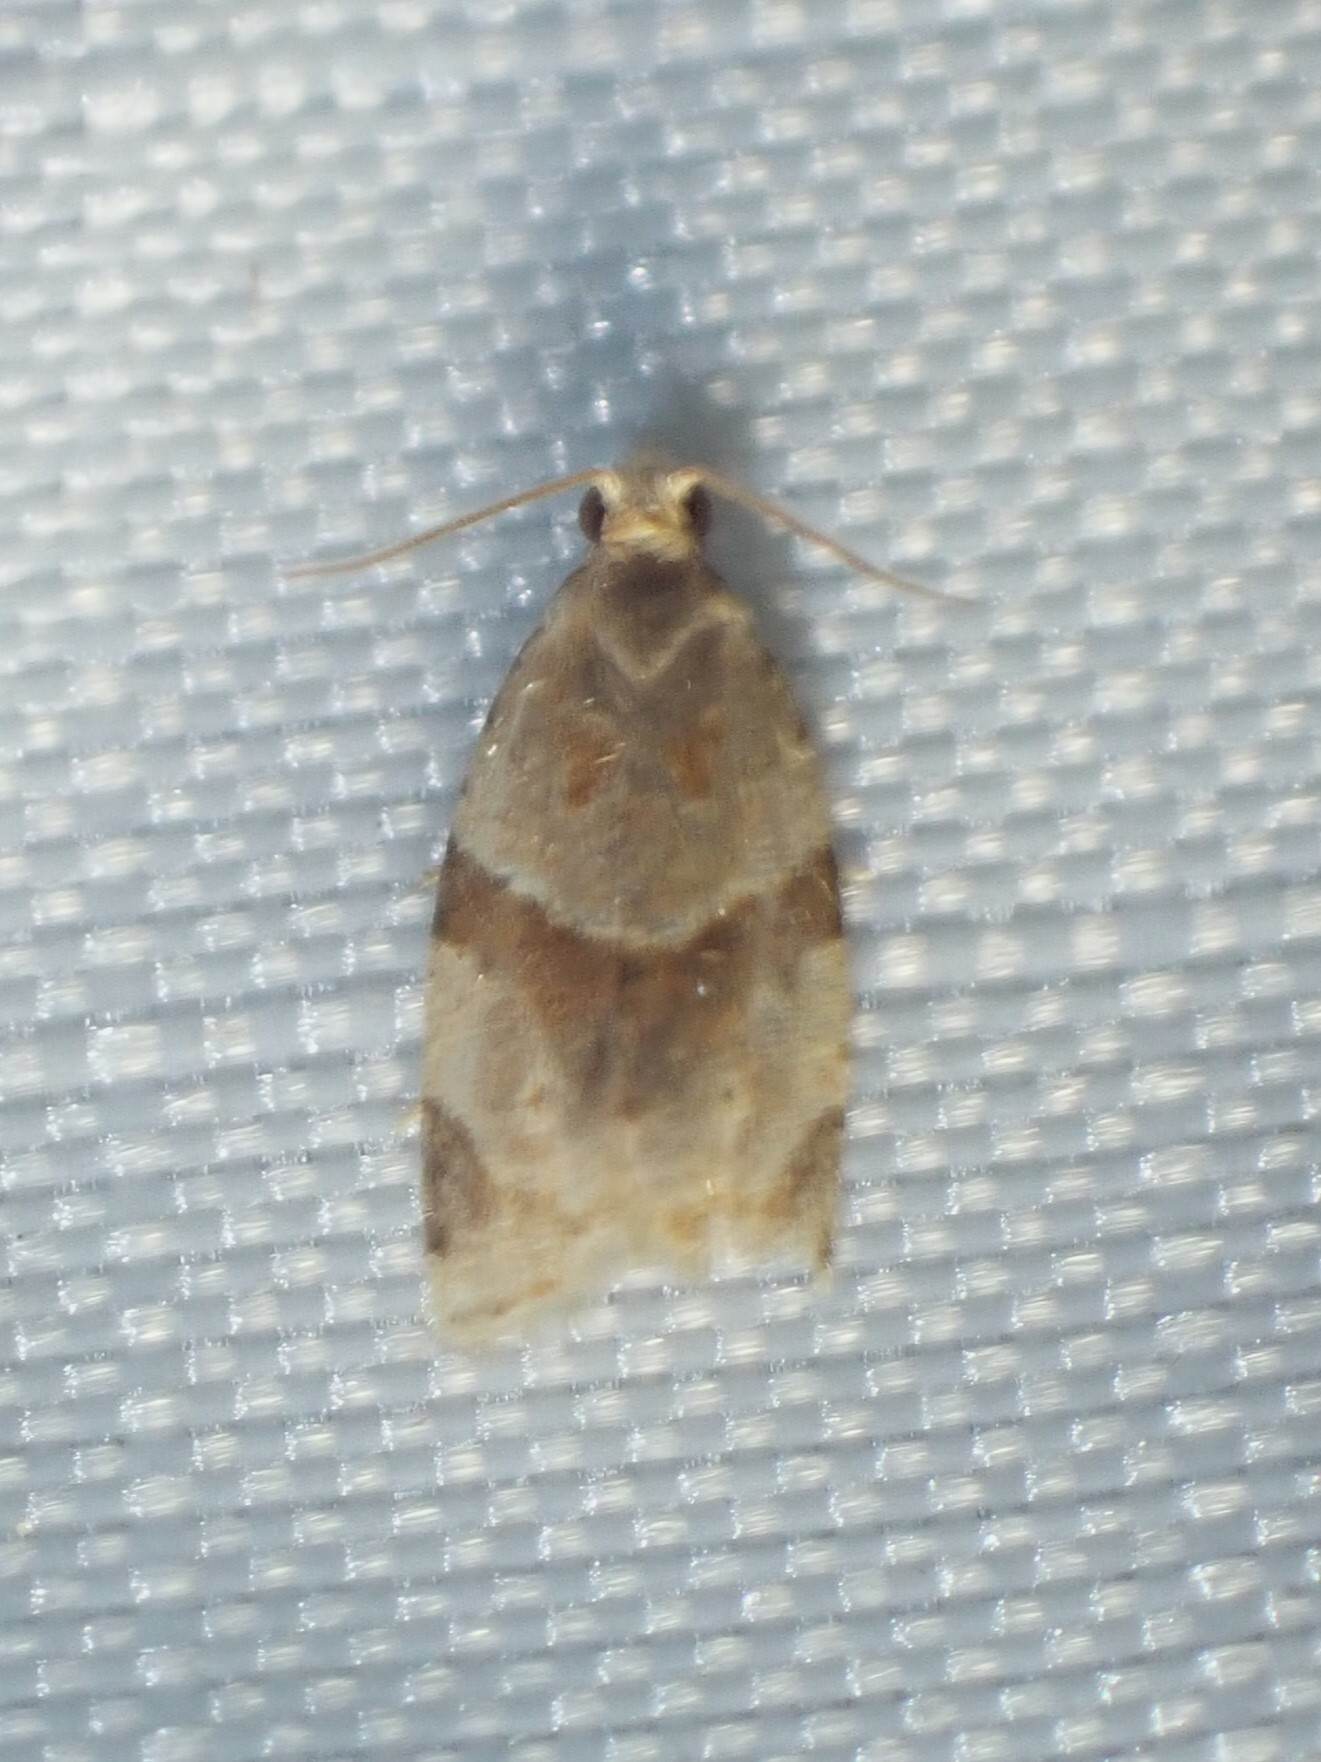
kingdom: Animalia
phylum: Arthropoda
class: Insecta
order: Lepidoptera
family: Tortricidae
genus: Clepsis
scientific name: Clepsis peritana
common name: Garden tortrix
